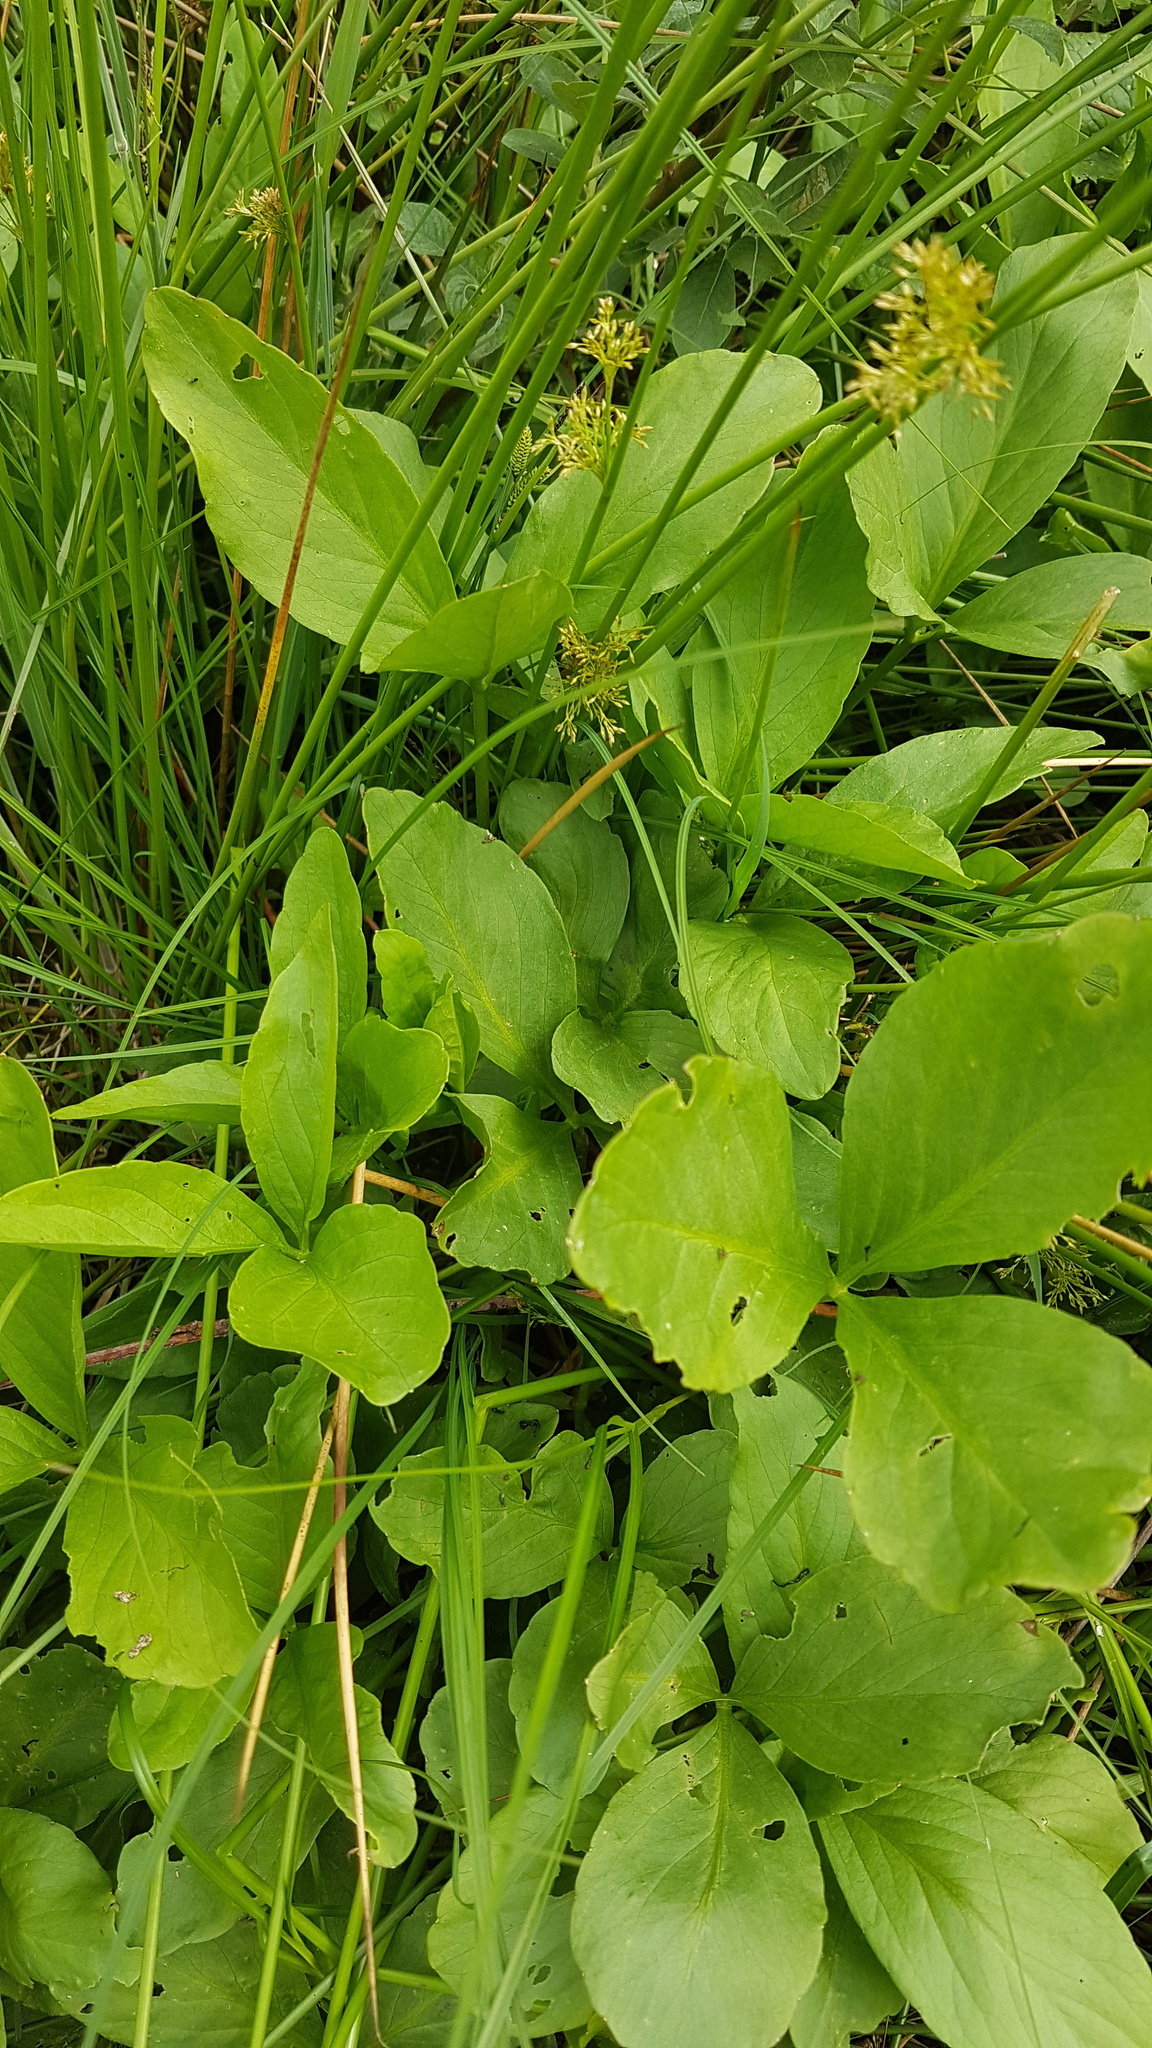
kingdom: Plantae
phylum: Tracheophyta
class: Magnoliopsida
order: Asterales
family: Menyanthaceae
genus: Menyanthes
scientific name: Menyanthes trifoliata
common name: Bogbean
